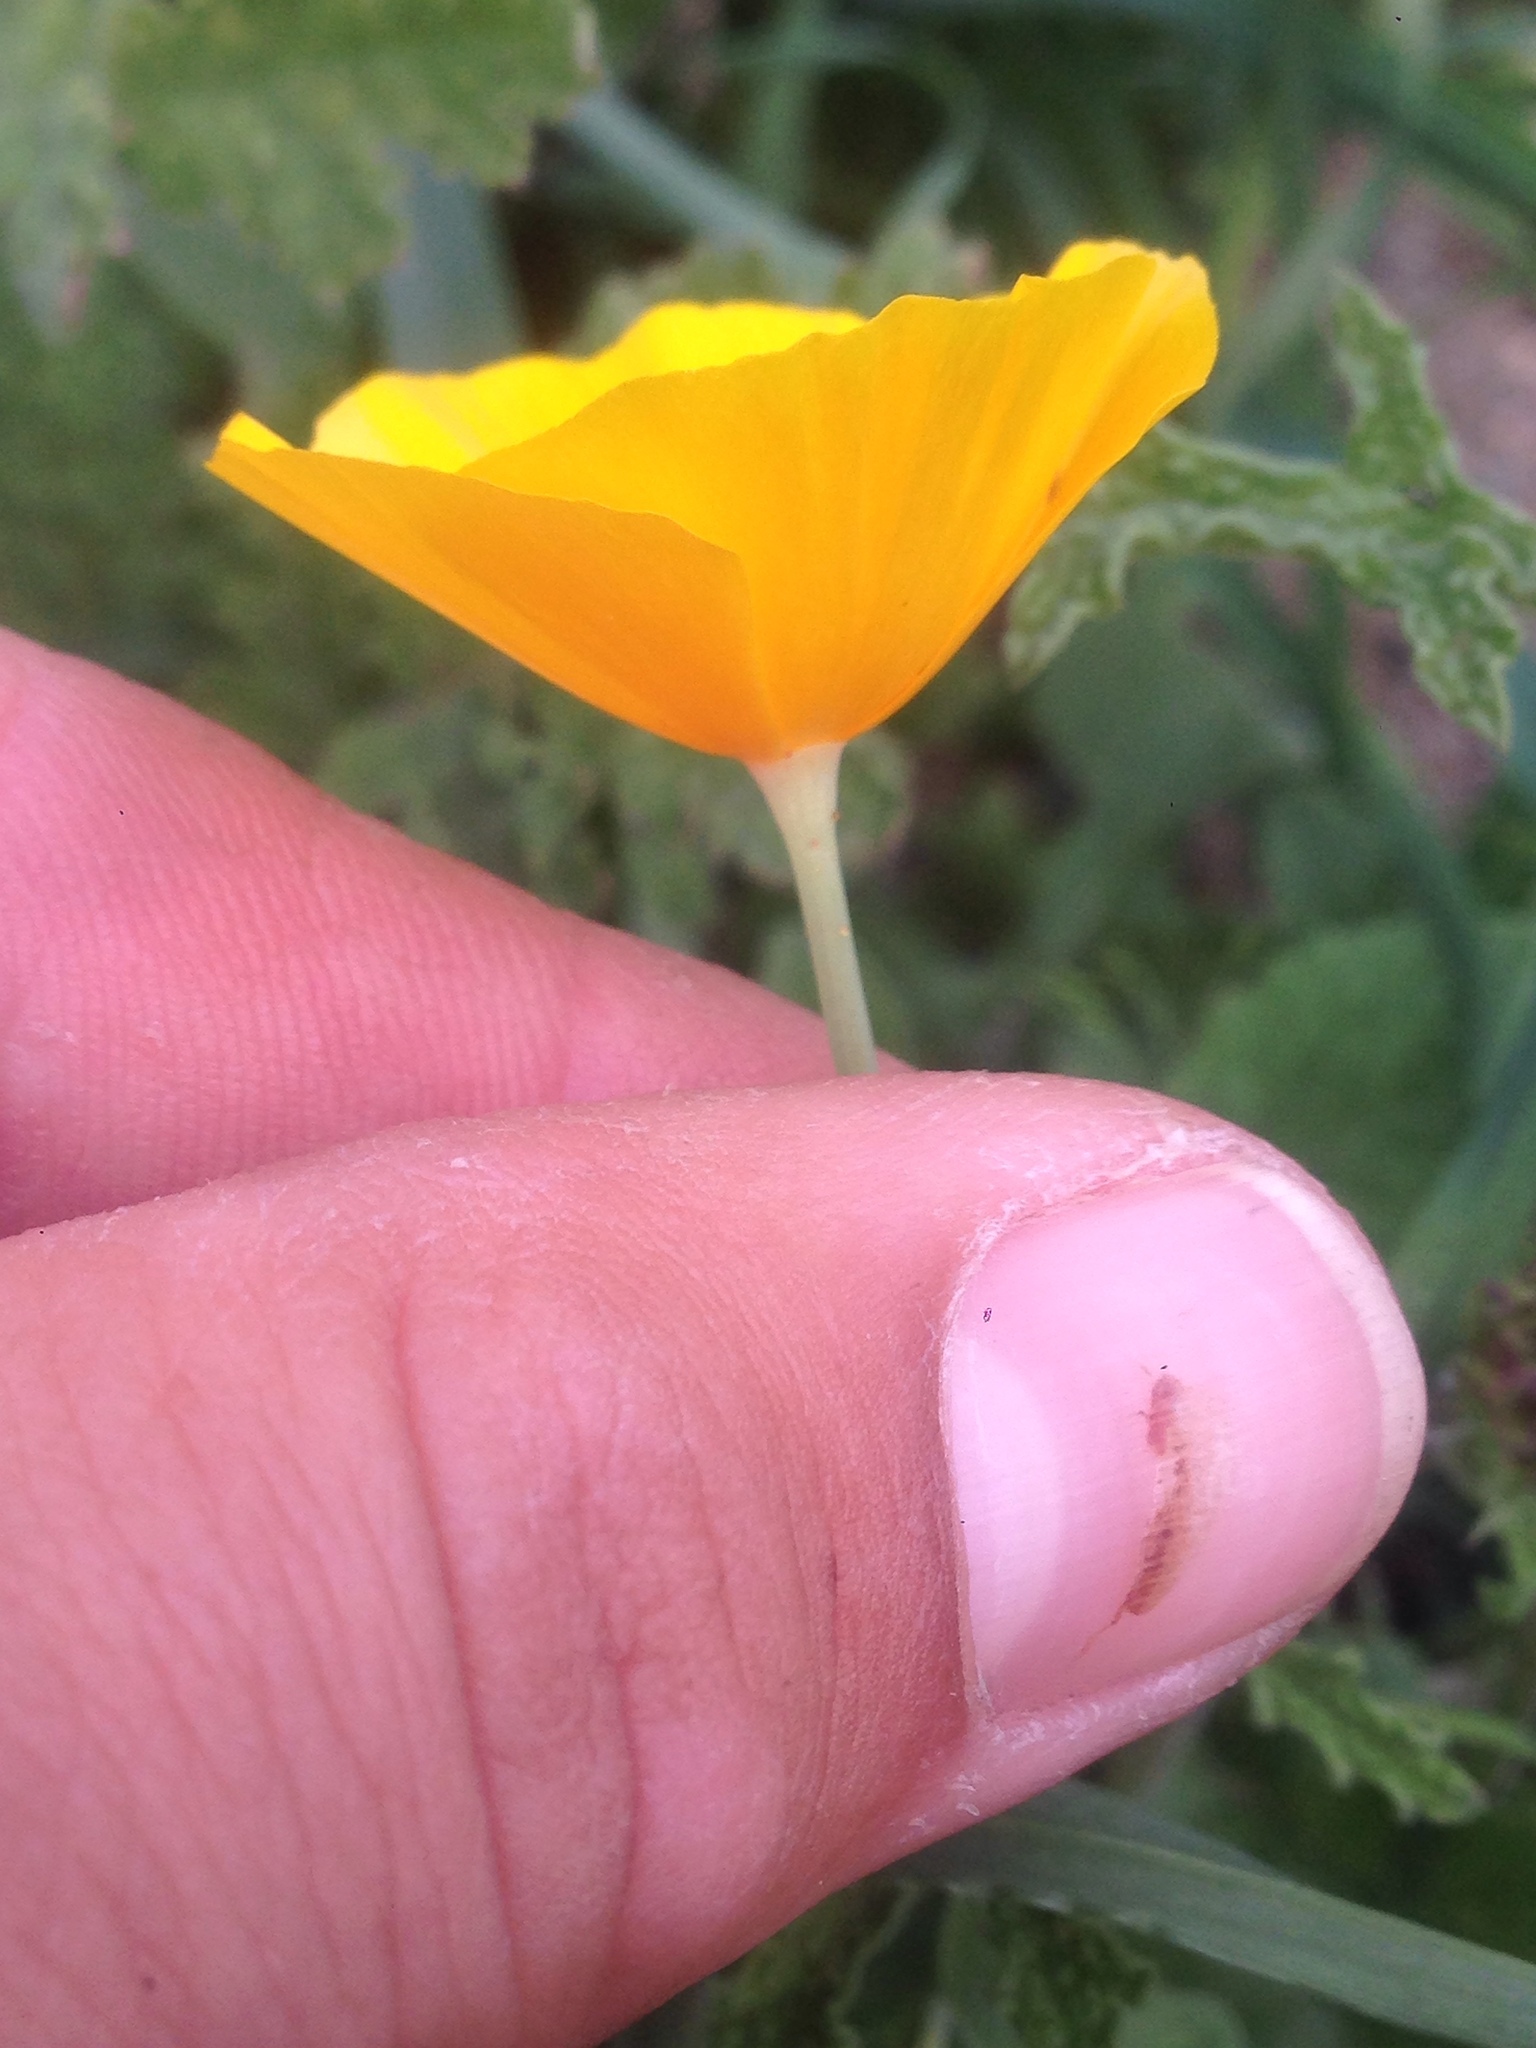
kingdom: Plantae
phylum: Tracheophyta
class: Magnoliopsida
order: Ranunculales
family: Papaveraceae
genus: Eschscholzia
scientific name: Eschscholzia caespitosa
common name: Tufted california-poppy
